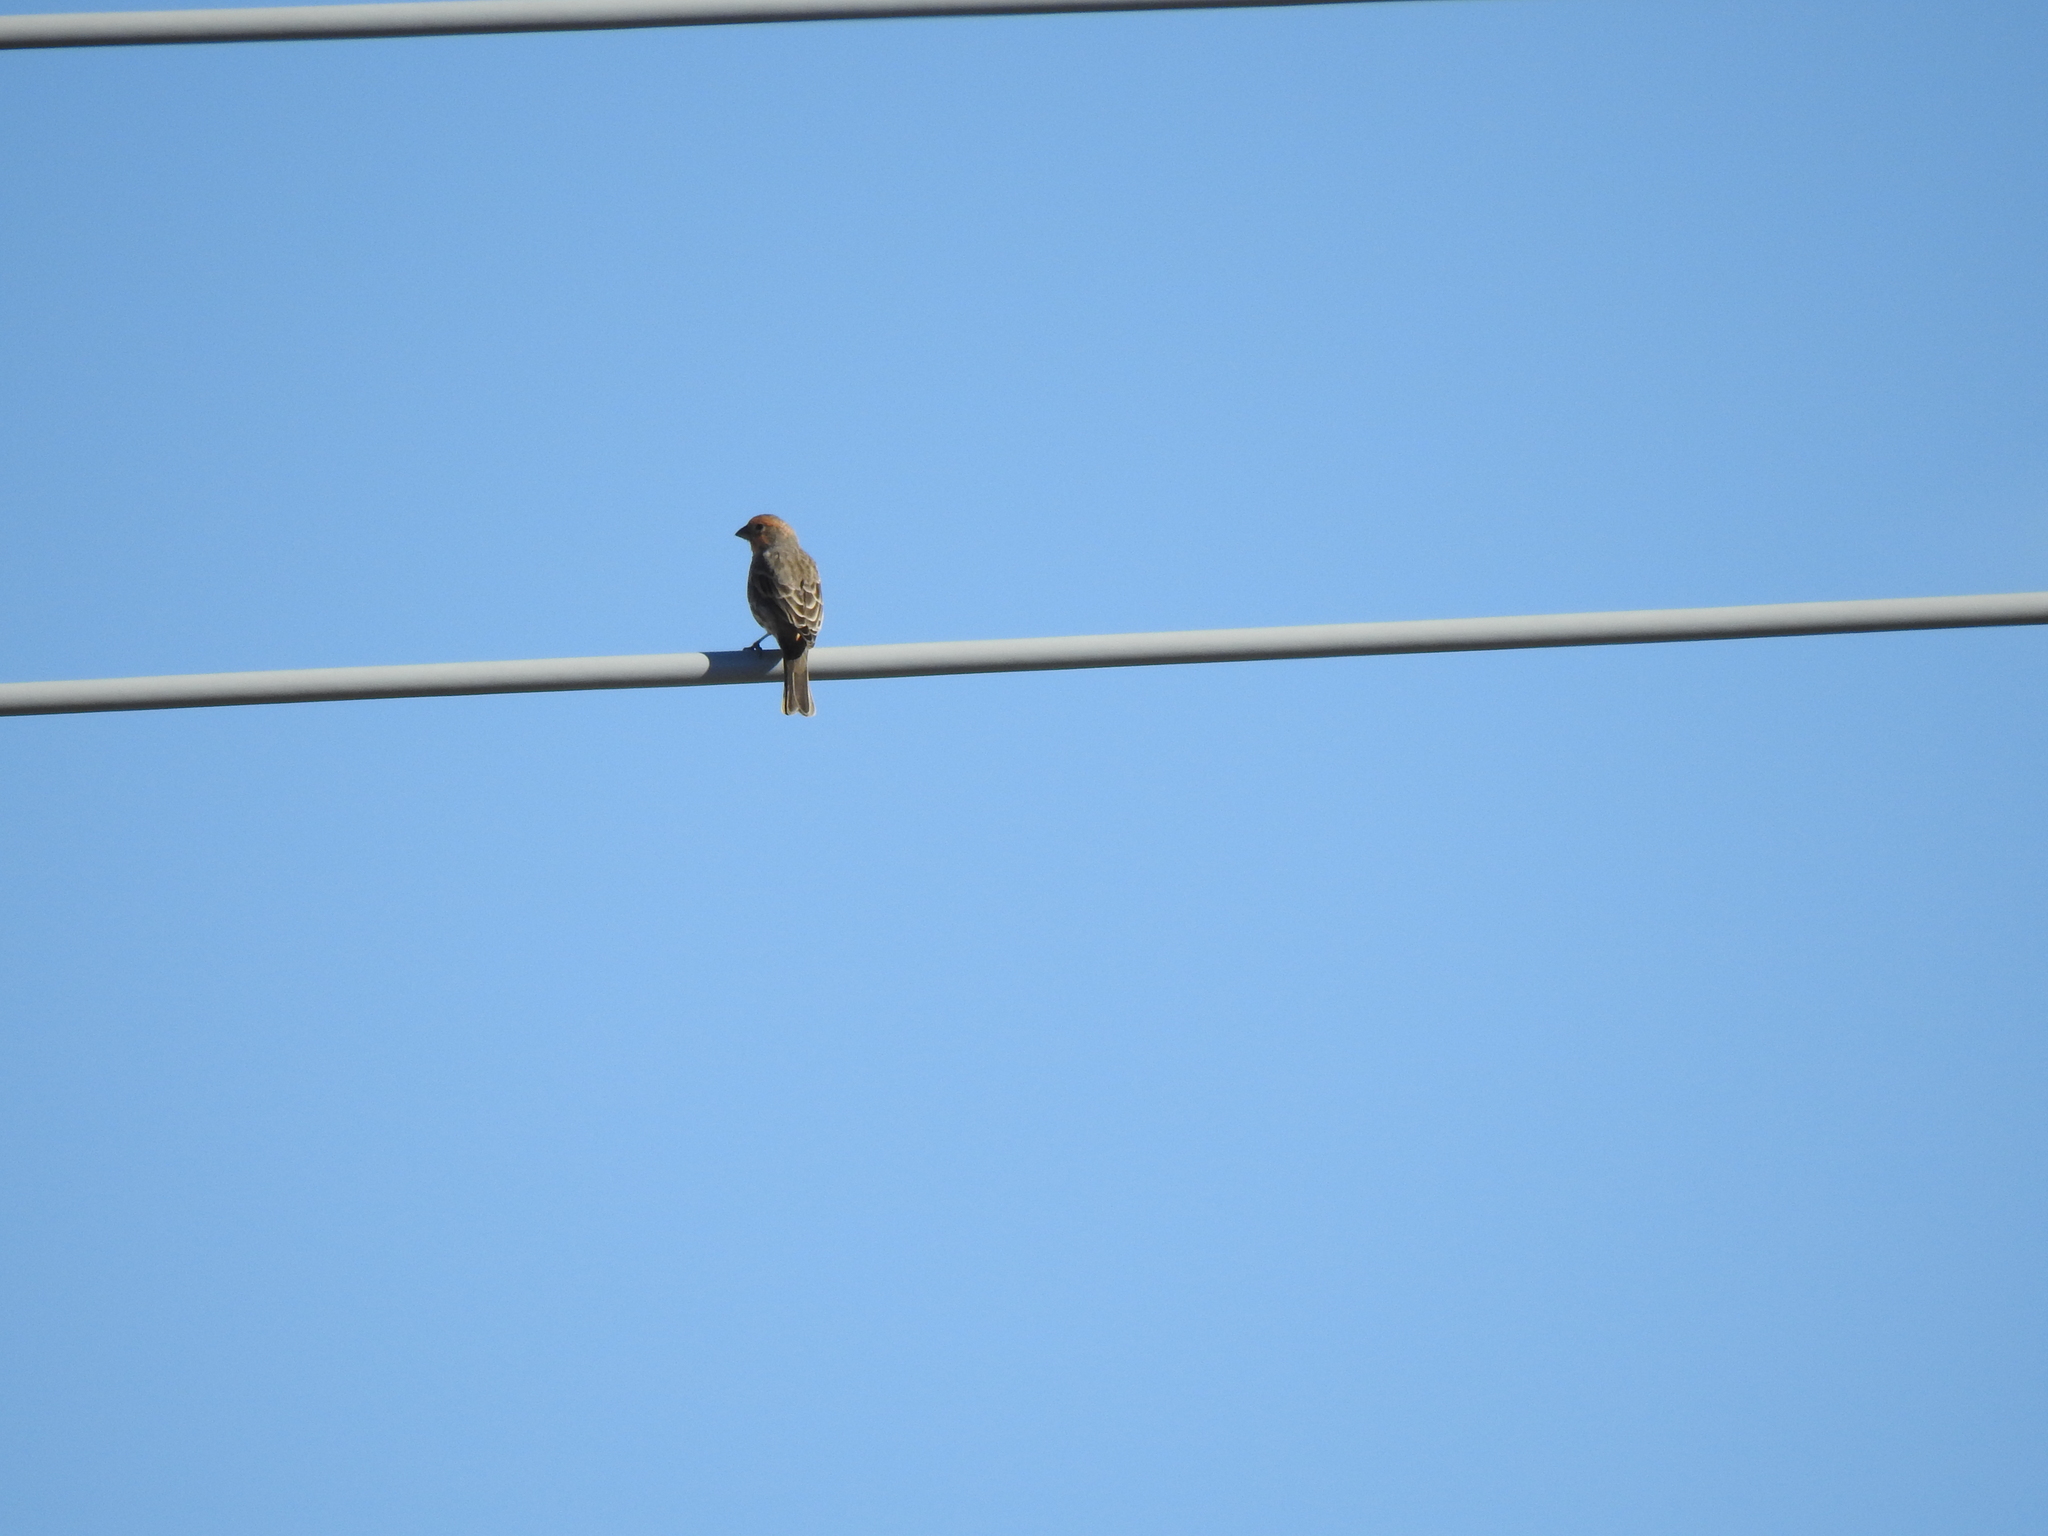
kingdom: Animalia
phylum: Chordata
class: Aves
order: Passeriformes
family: Fringillidae
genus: Haemorhous
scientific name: Haemorhous mexicanus
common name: House finch
